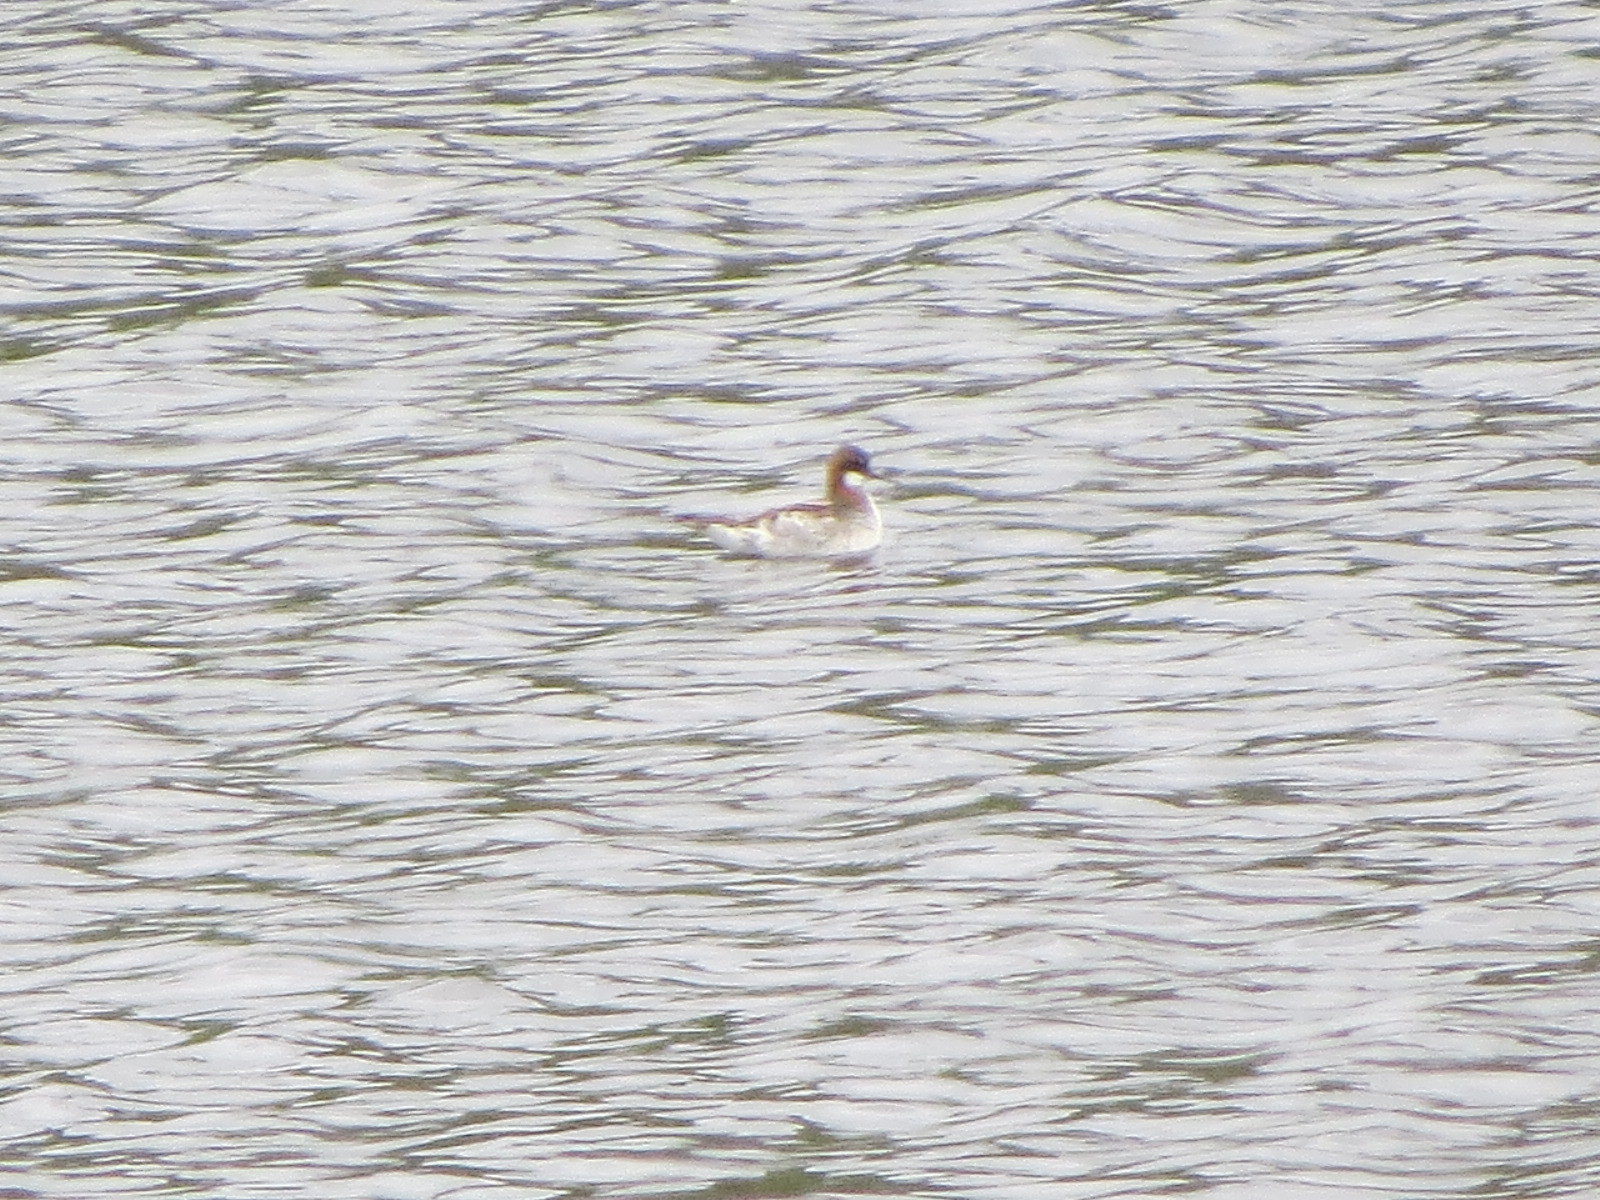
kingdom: Animalia
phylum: Chordata
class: Aves
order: Charadriiformes
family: Scolopacidae
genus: Phalaropus
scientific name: Phalaropus lobatus
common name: Red-necked phalarope
